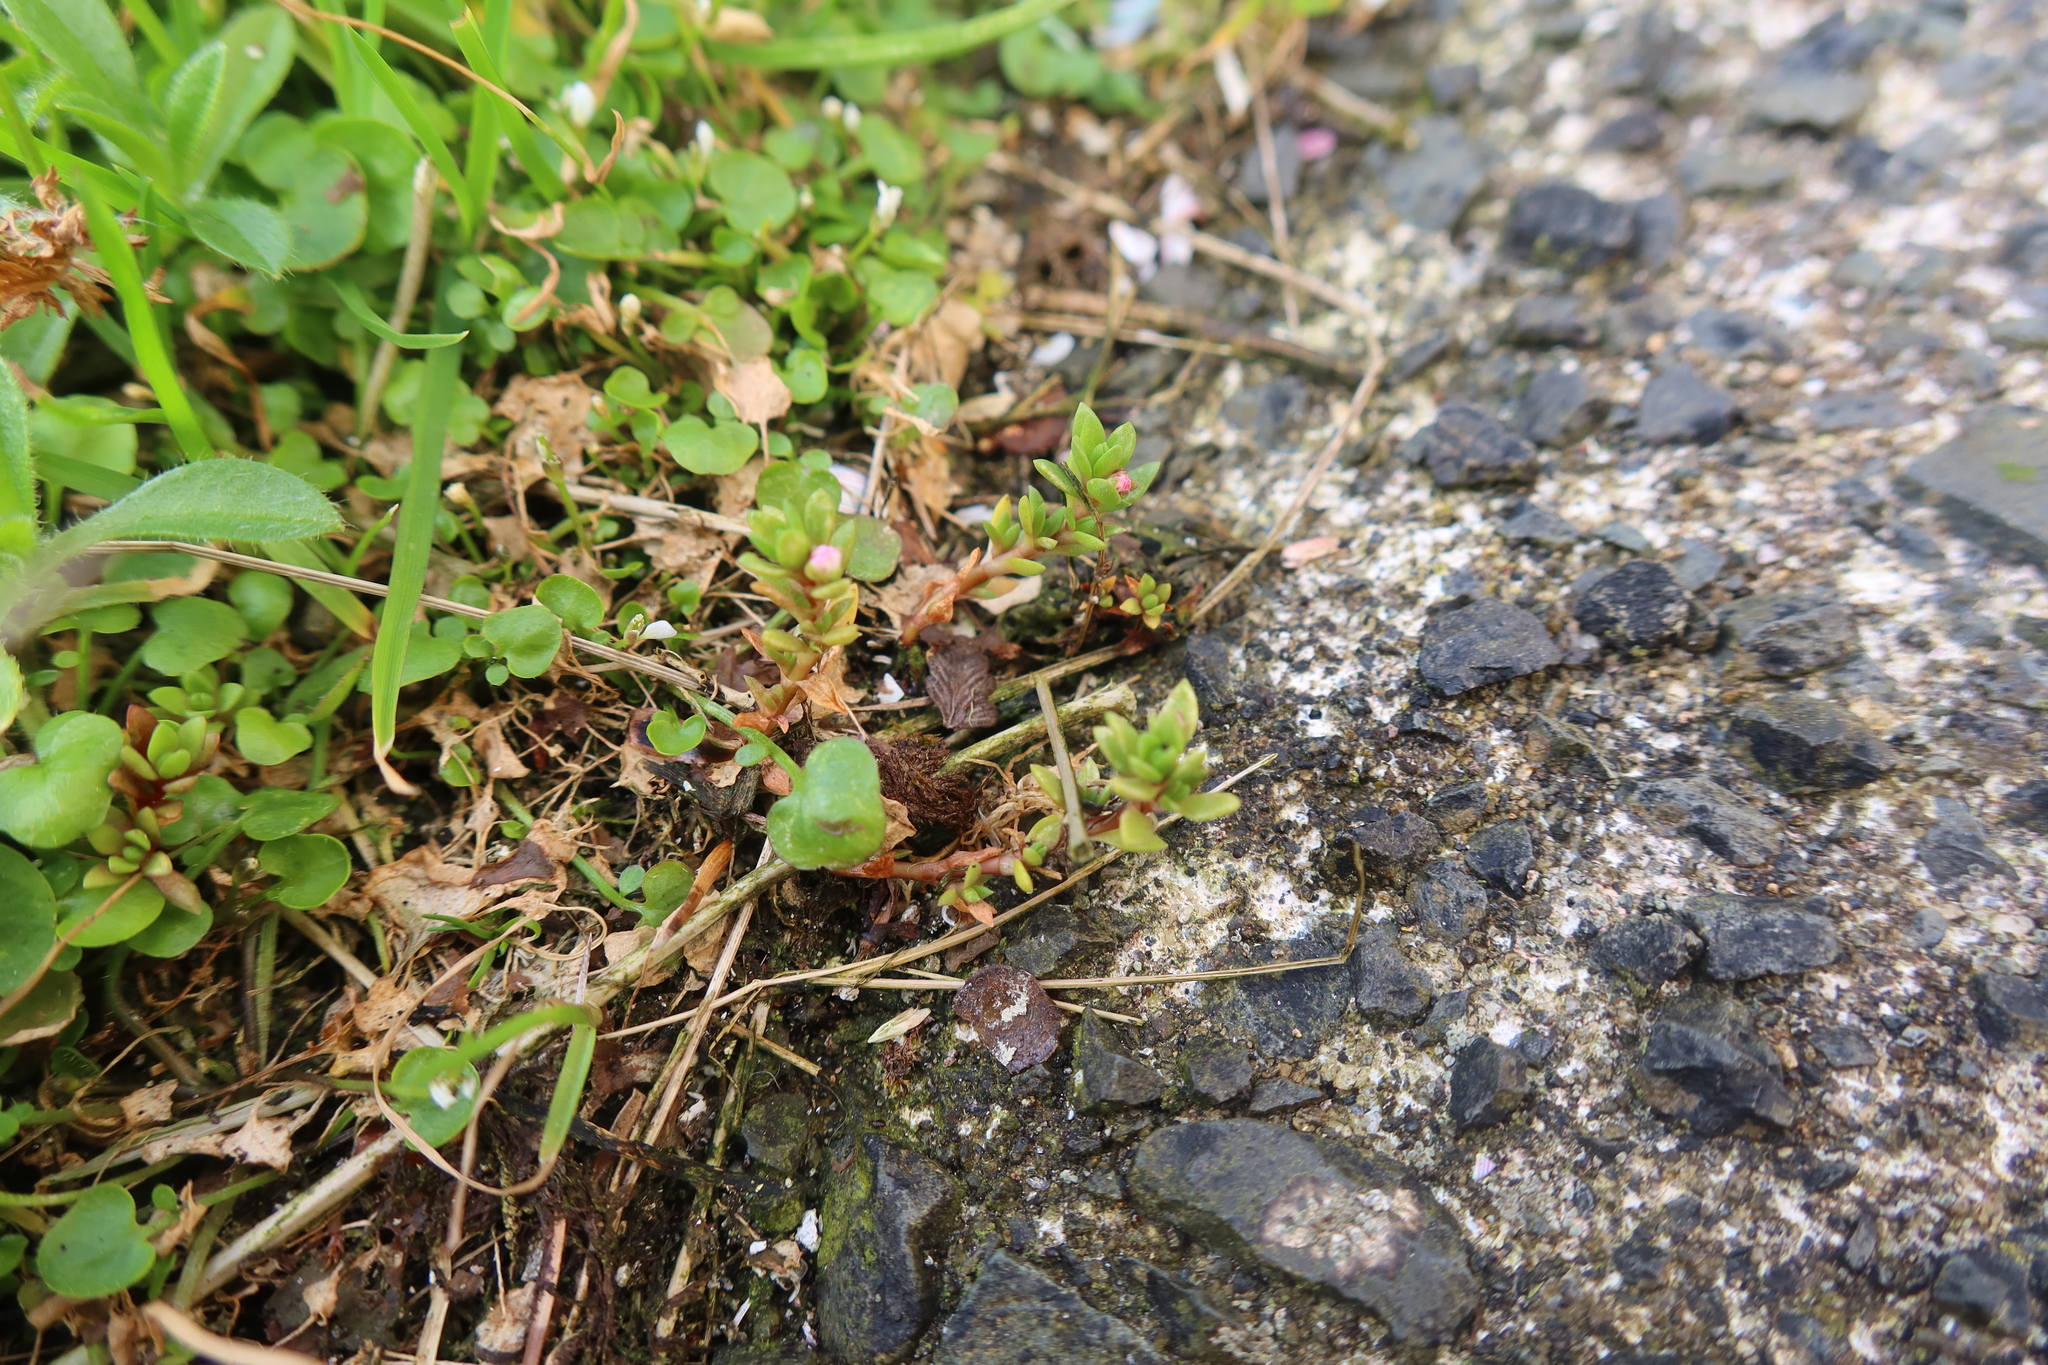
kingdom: Plantae
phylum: Tracheophyta
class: Magnoliopsida
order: Saxifragales
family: Crassulaceae
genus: Crassula
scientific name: Crassula moschata
